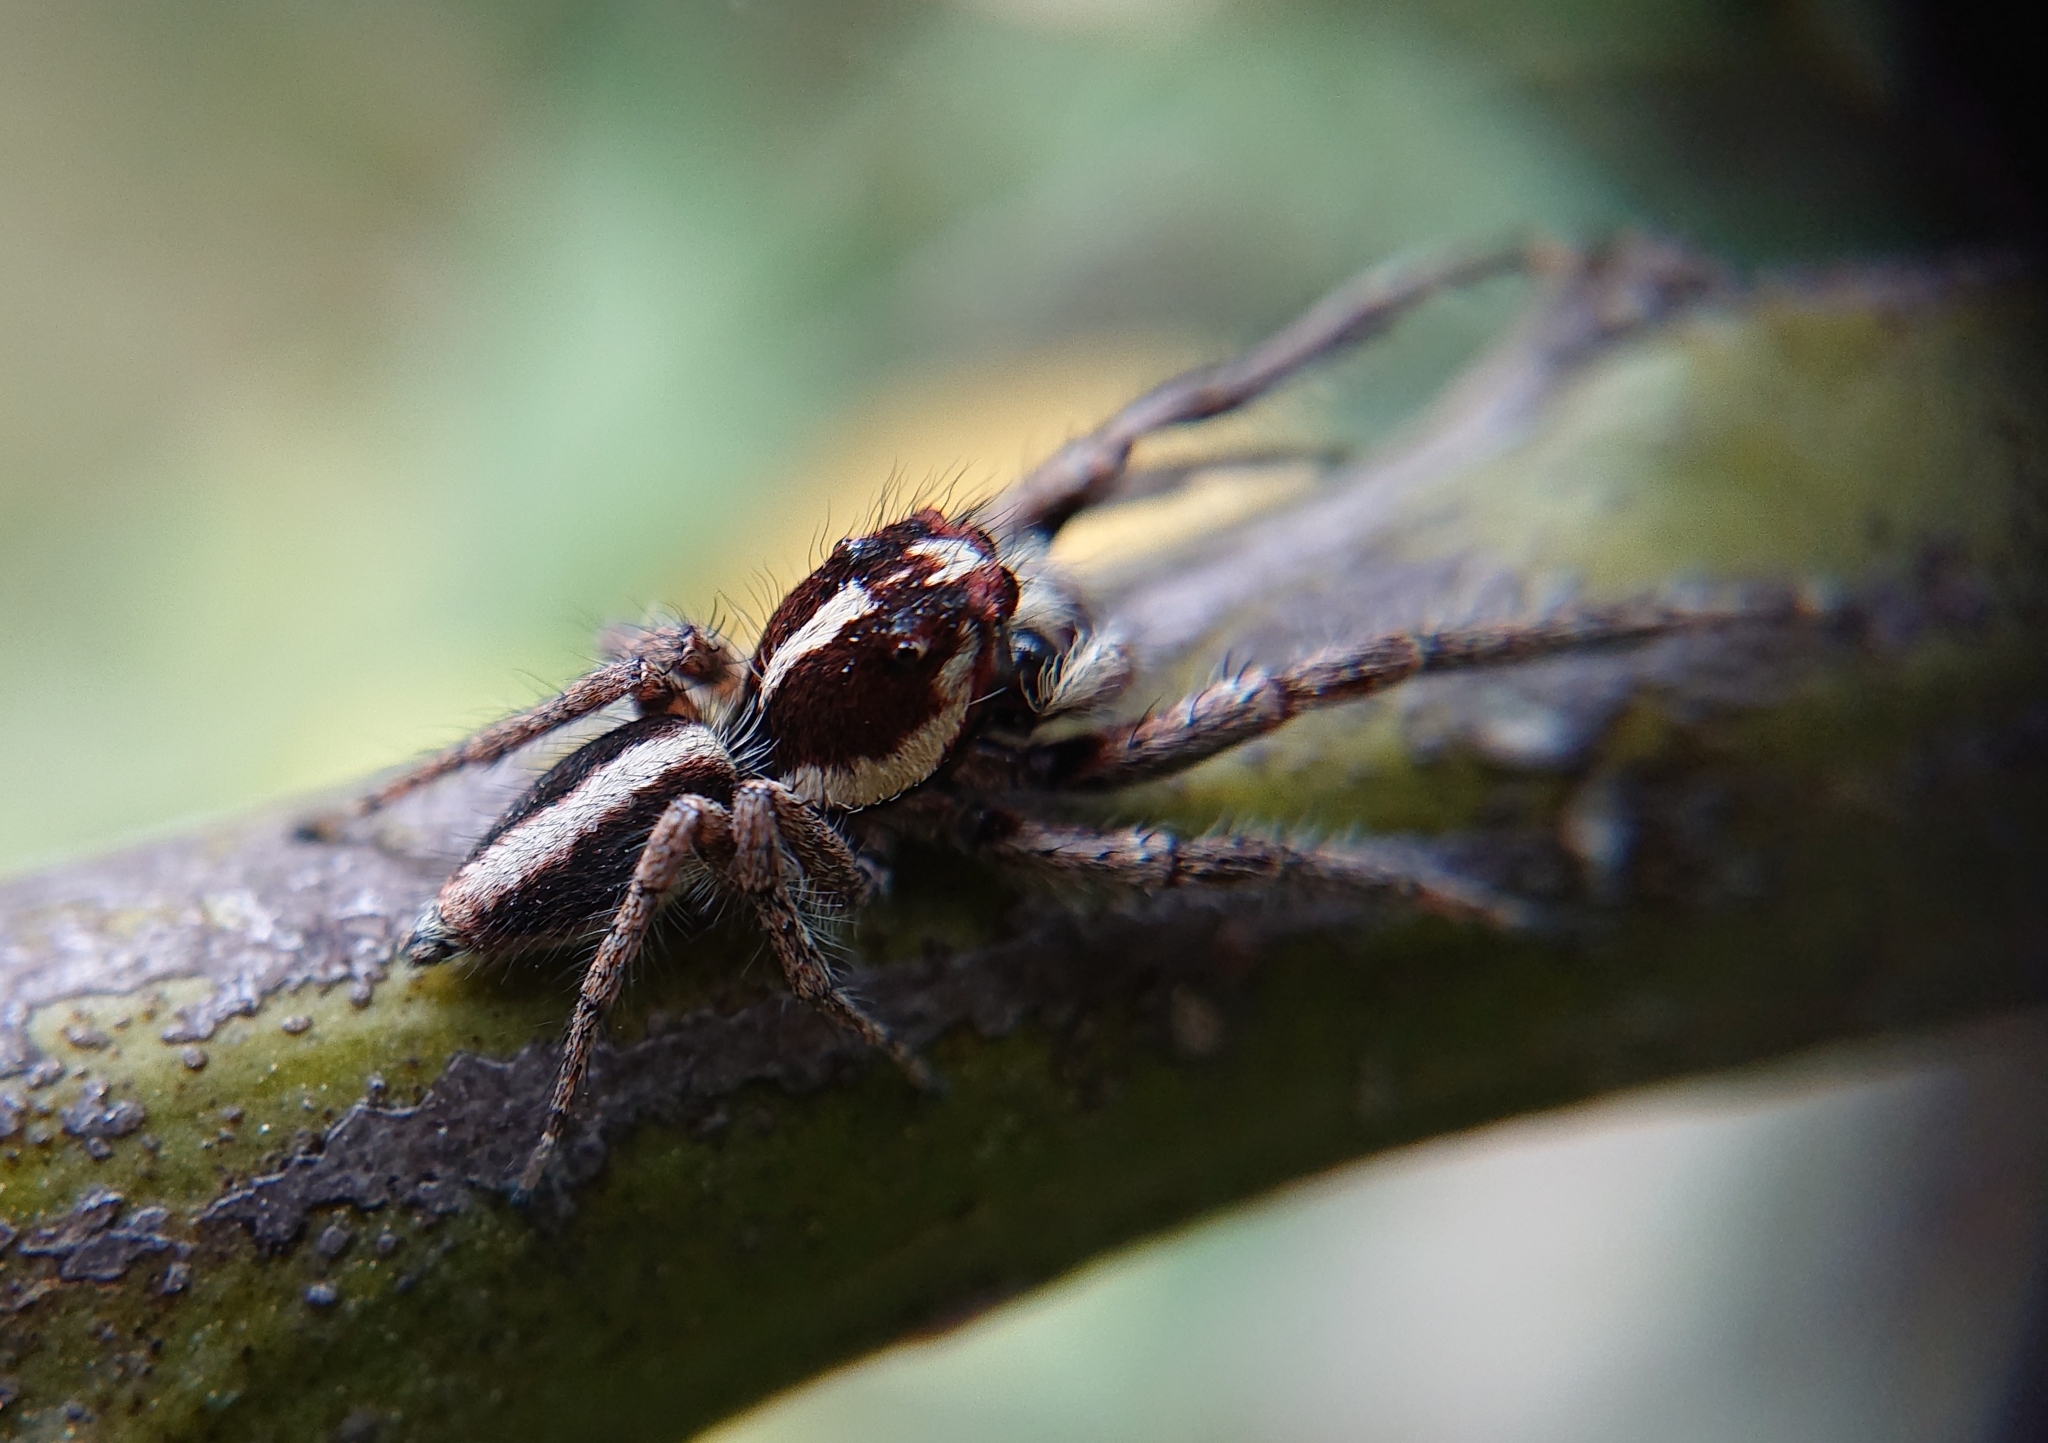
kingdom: Animalia
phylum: Arthropoda
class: Arachnida
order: Araneae
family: Salticidae
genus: Frigga
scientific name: Frigga crocuta
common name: Jumping spiders
